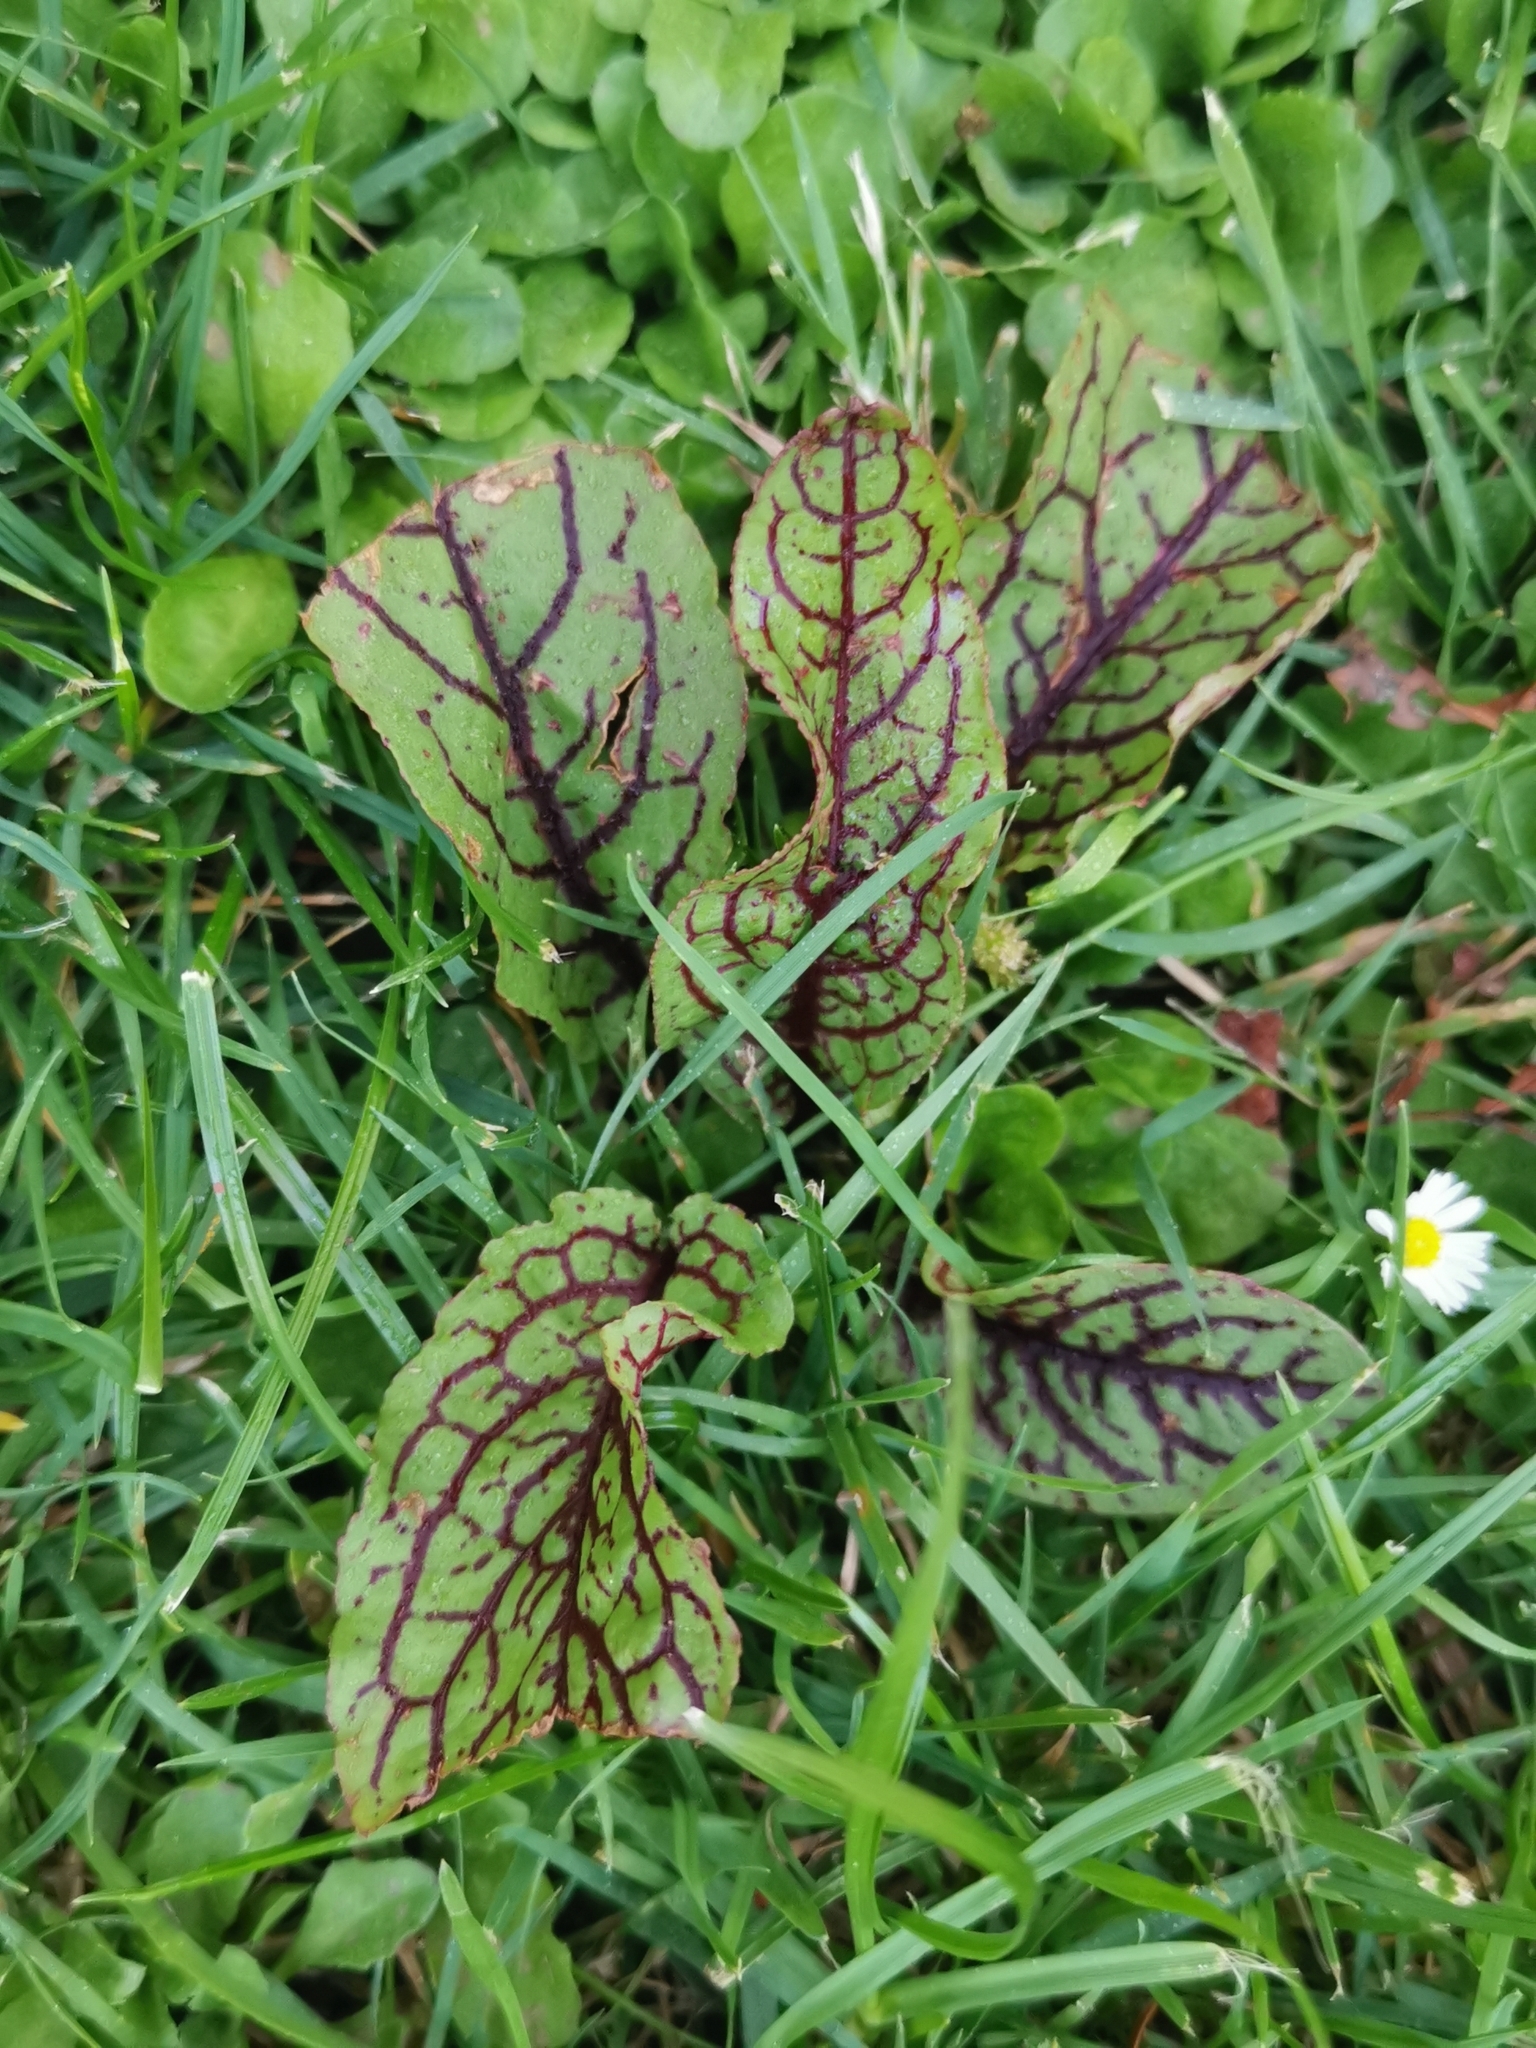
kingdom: Plantae
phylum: Tracheophyta
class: Magnoliopsida
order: Caryophyllales
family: Polygonaceae
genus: Rumex
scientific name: Rumex sanguineus
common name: Wood dock
